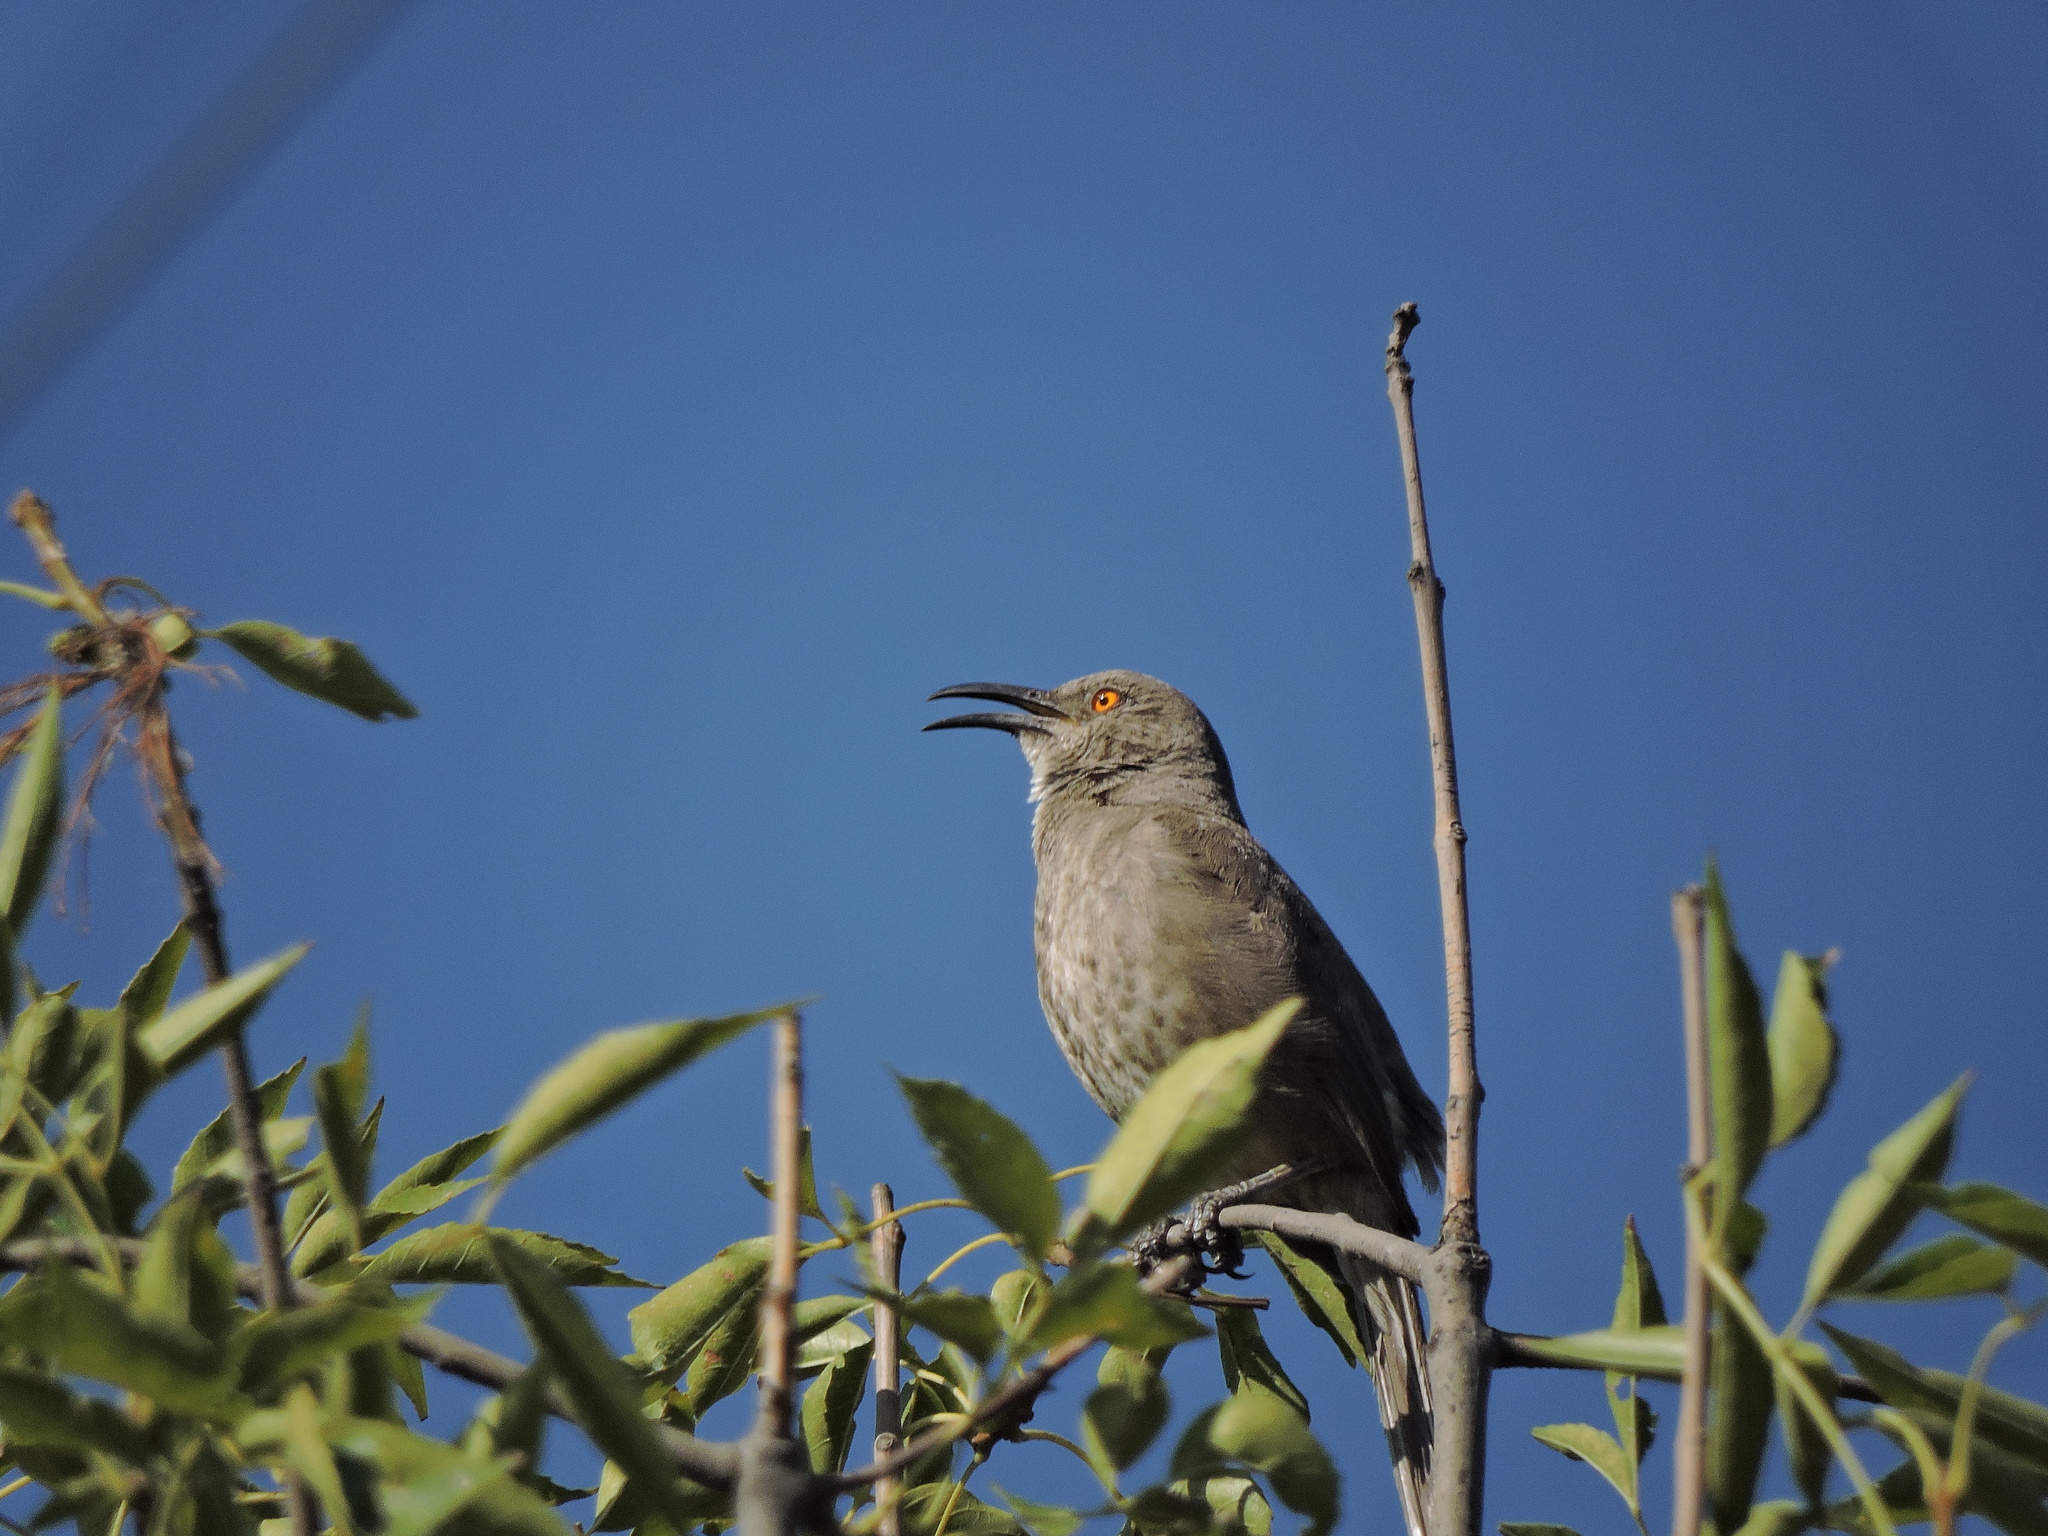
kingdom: Animalia
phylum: Chordata
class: Aves
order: Passeriformes
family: Mimidae
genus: Toxostoma
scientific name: Toxostoma curvirostre
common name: Curve-billed thrasher
